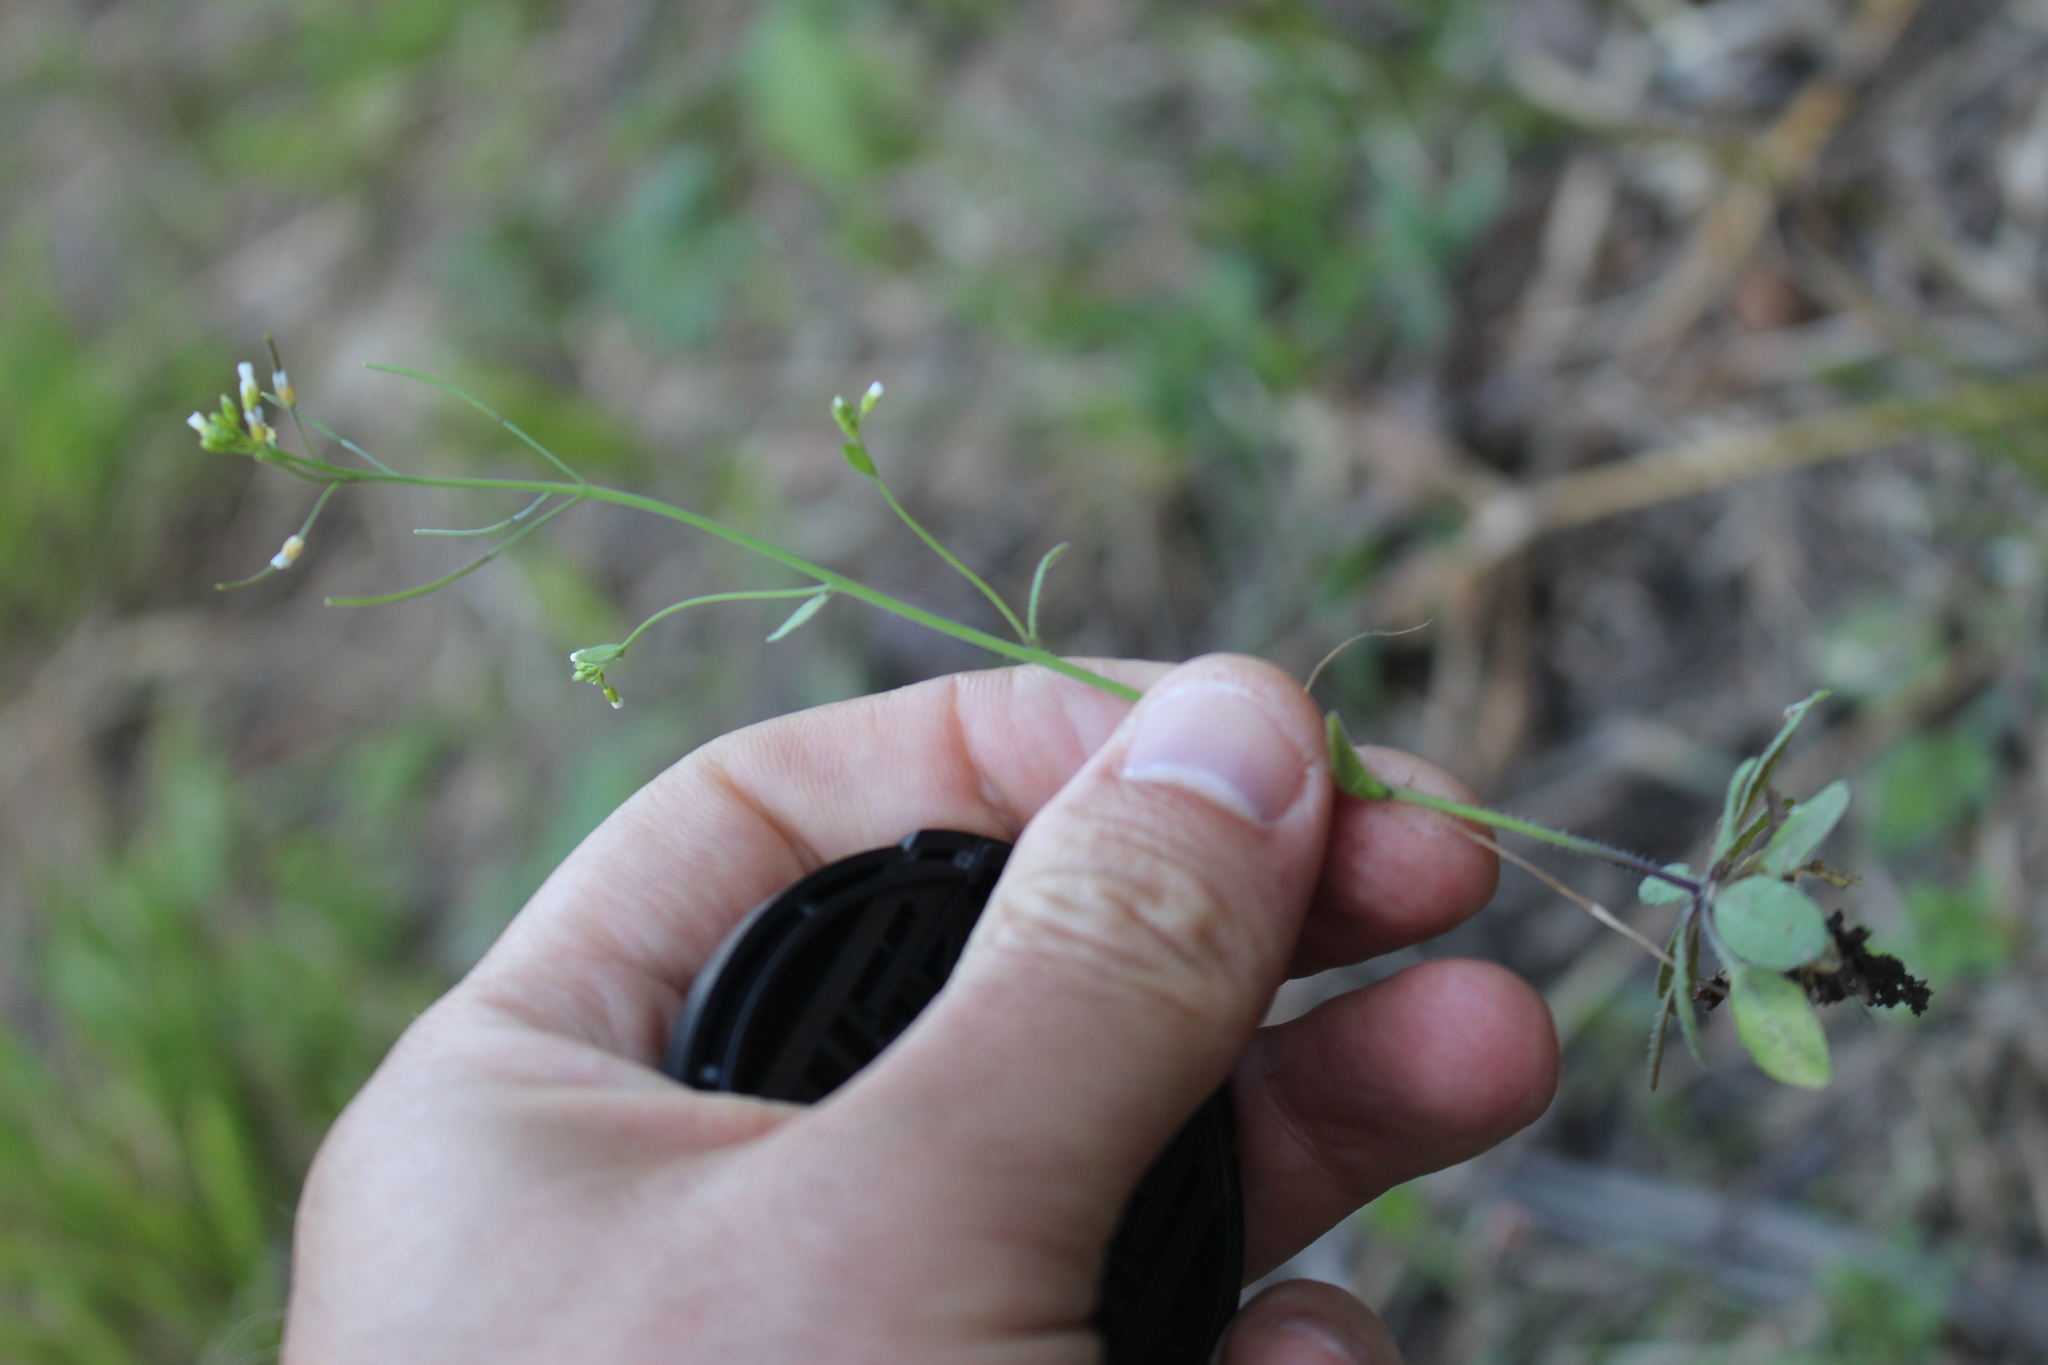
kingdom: Plantae
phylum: Tracheophyta
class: Magnoliopsida
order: Brassicales
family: Brassicaceae
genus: Arabidopsis
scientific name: Arabidopsis thaliana
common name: Thale cress
